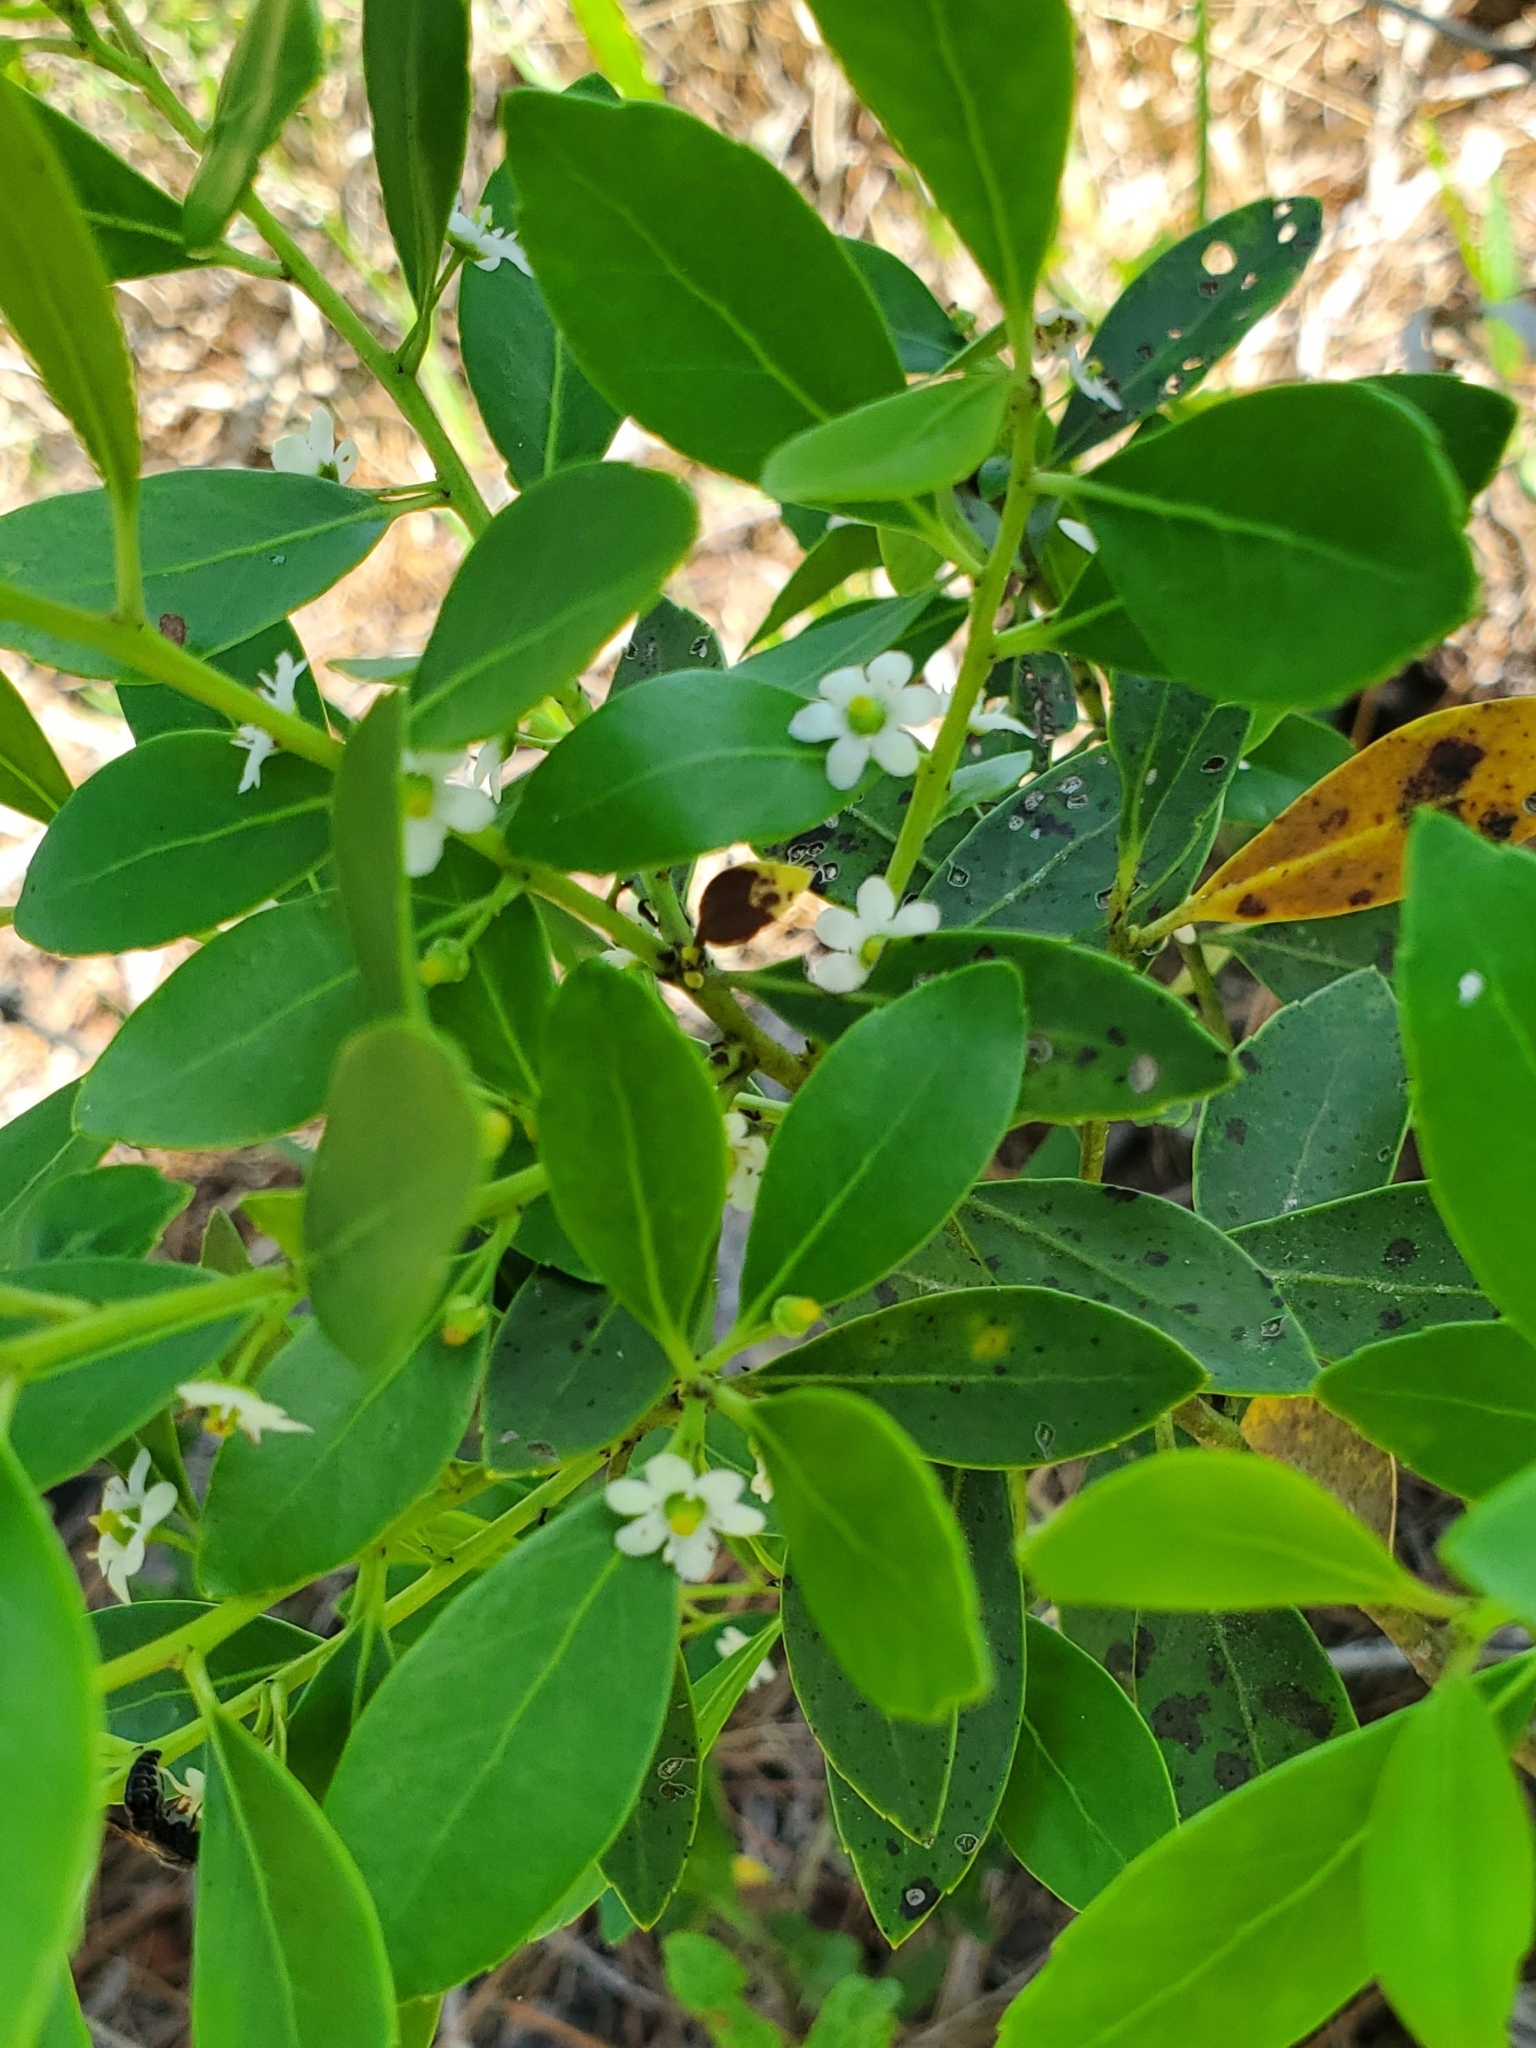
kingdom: Plantae
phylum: Tracheophyta
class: Magnoliopsida
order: Aquifoliales
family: Aquifoliaceae
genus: Ilex
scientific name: Ilex glabra
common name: Bitter gallberry
